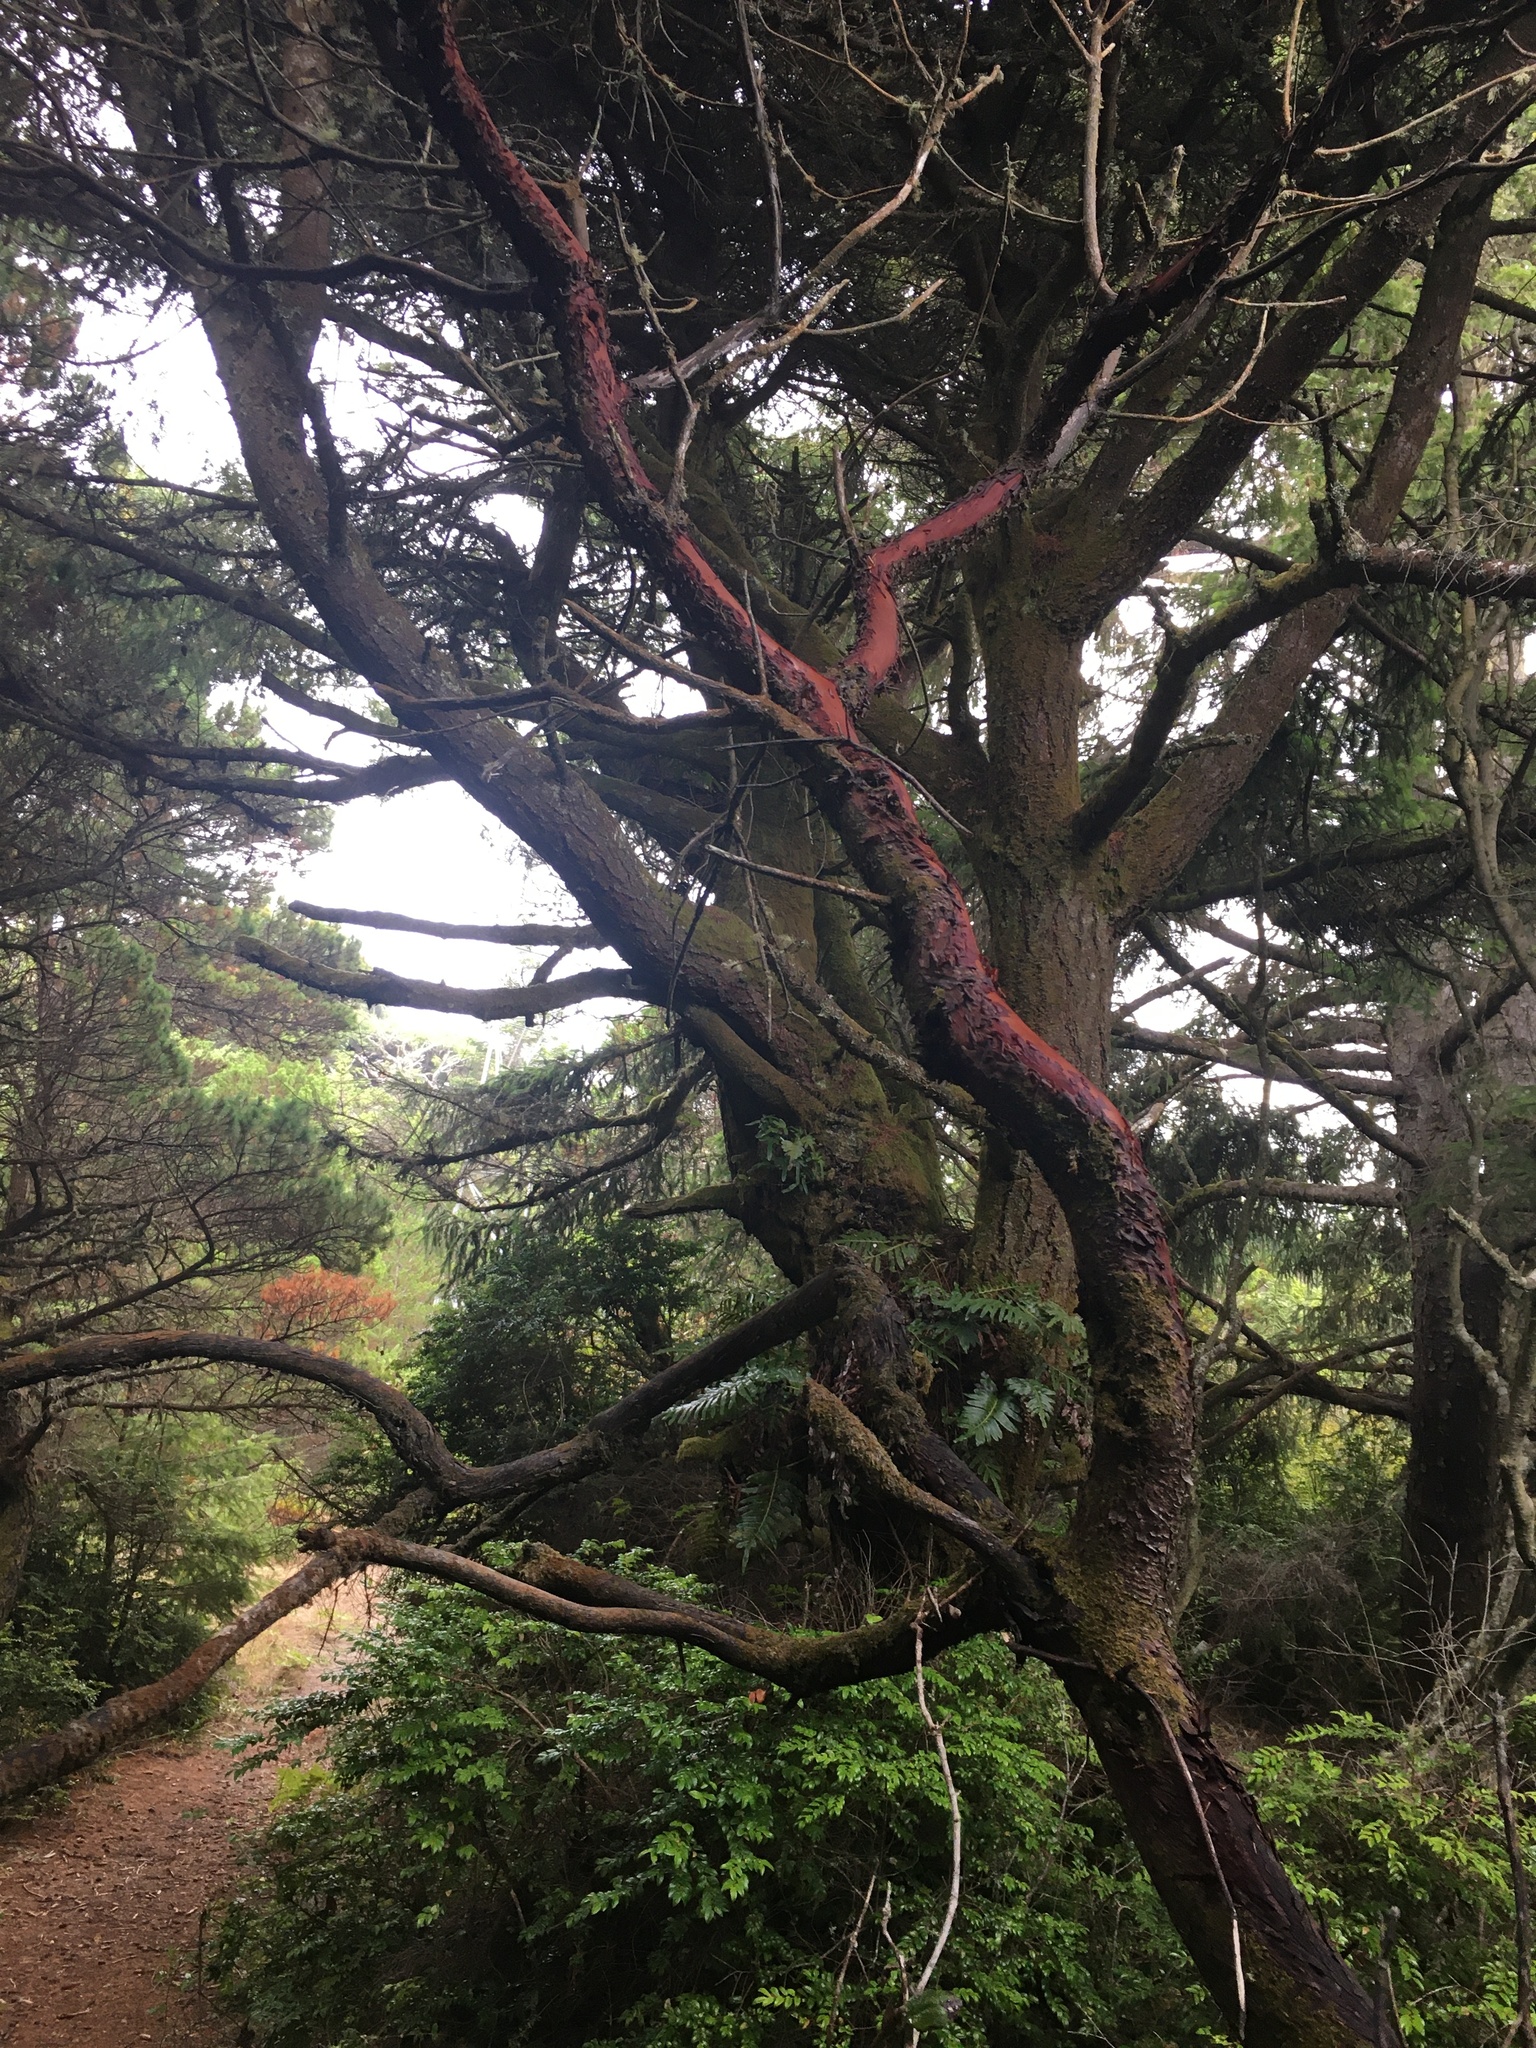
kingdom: Plantae
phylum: Tracheophyta
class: Magnoliopsida
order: Ericales
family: Ericaceae
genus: Arbutus
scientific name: Arbutus menziesii
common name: Pacific madrone
